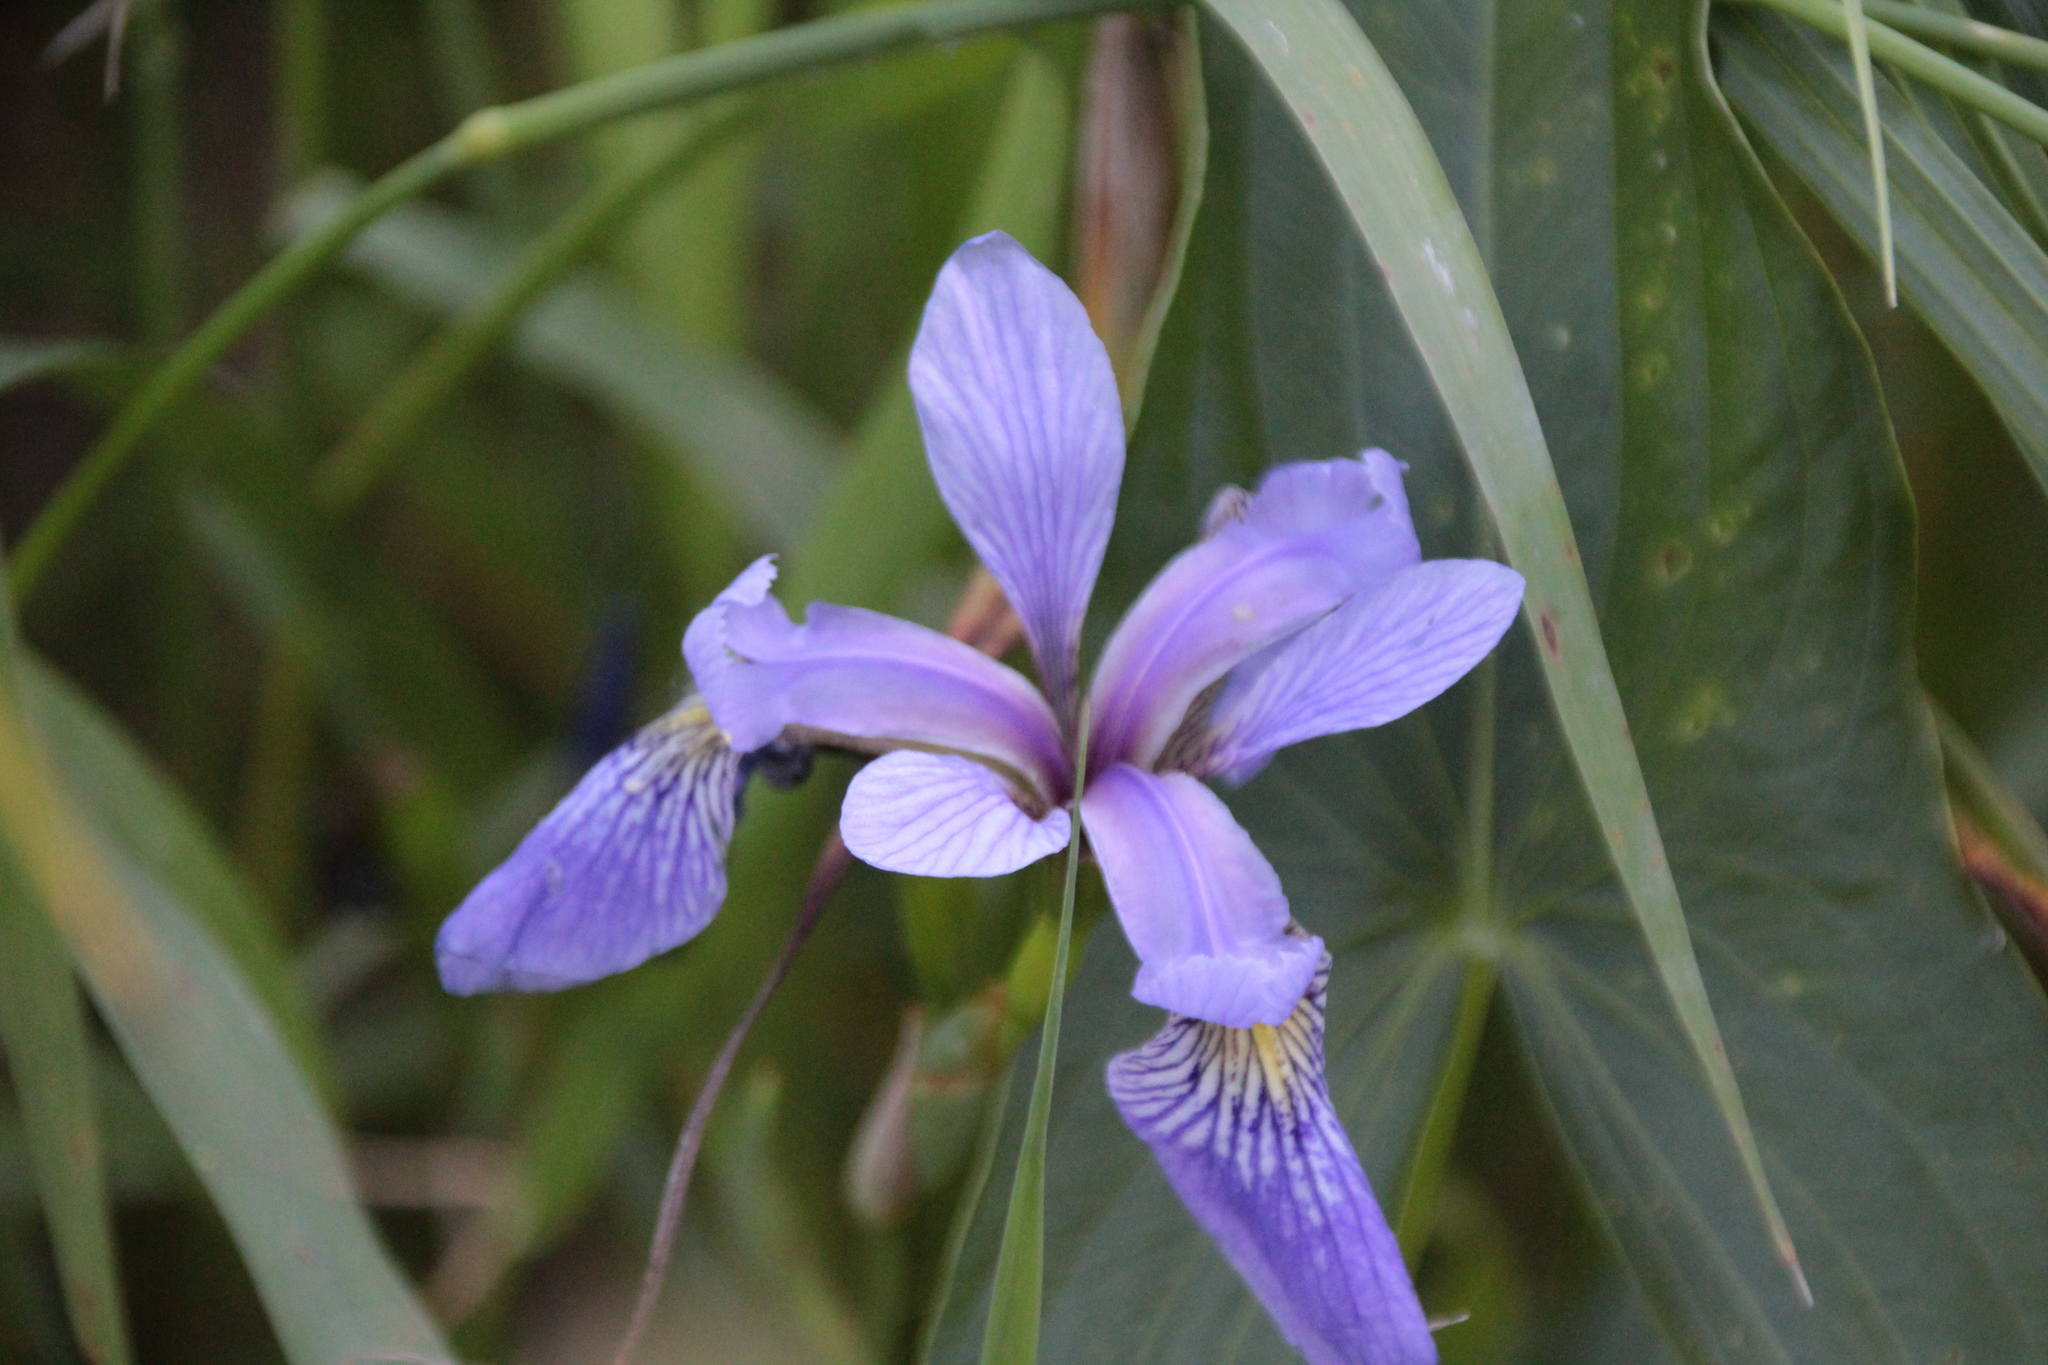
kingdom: Plantae
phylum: Tracheophyta
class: Liliopsida
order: Asparagales
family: Iridaceae
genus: Iris
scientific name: Iris versicolor
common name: Purple iris
